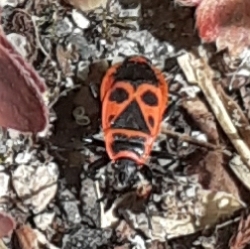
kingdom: Animalia
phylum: Arthropoda
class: Insecta
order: Hemiptera
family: Pyrrhocoridae
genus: Pyrrhocoris
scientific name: Pyrrhocoris apterus
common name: Firebug
